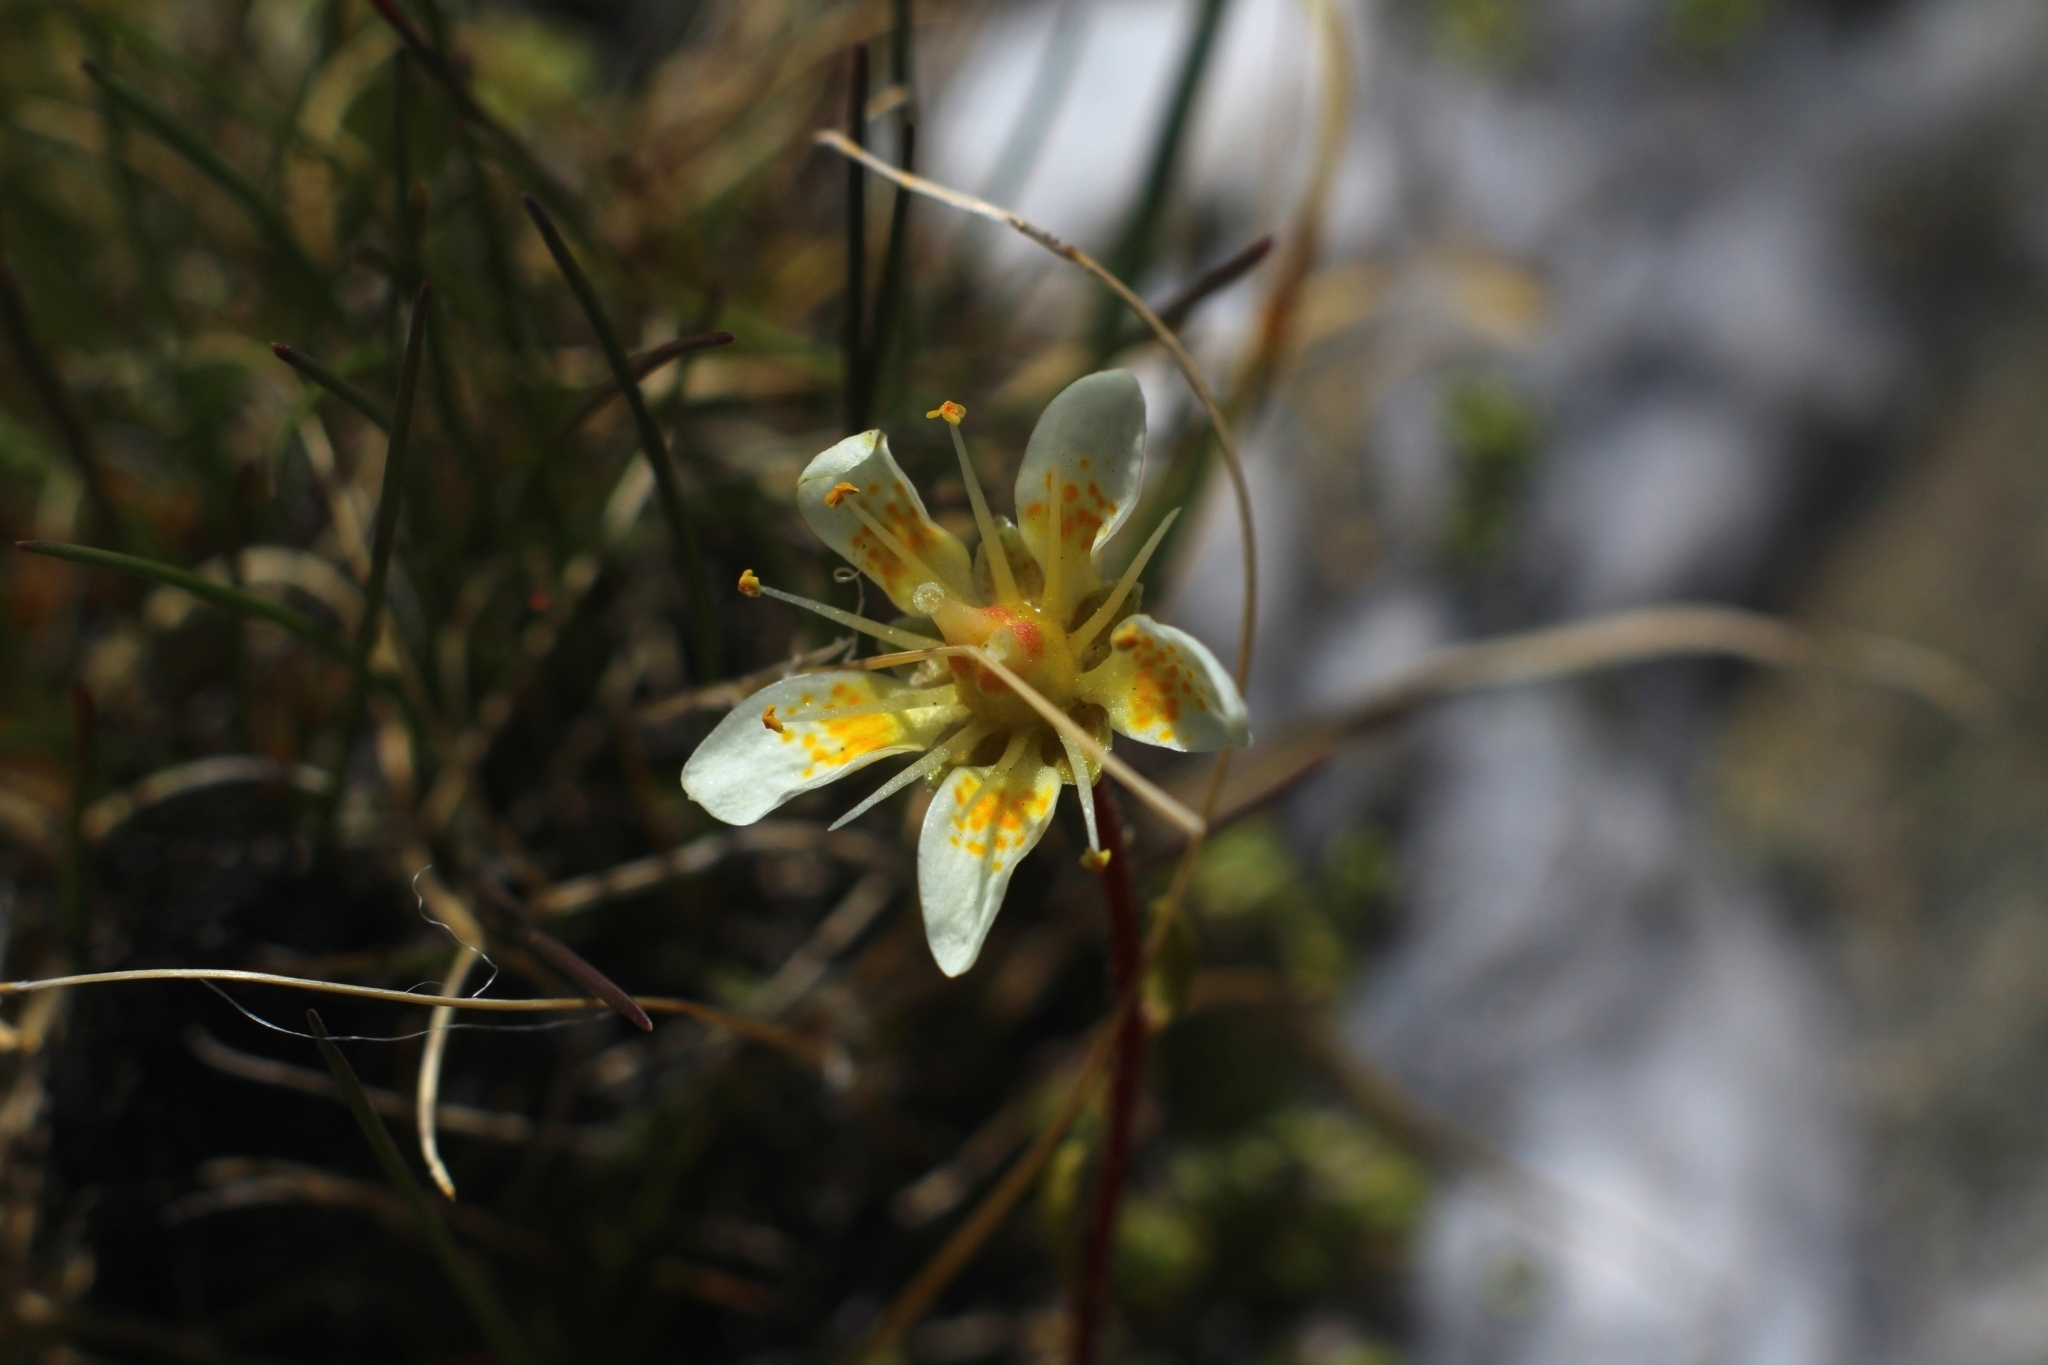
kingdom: Plantae
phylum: Tracheophyta
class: Magnoliopsida
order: Saxifragales
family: Saxifragaceae
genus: Saxifraga
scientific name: Saxifraga bryoides
